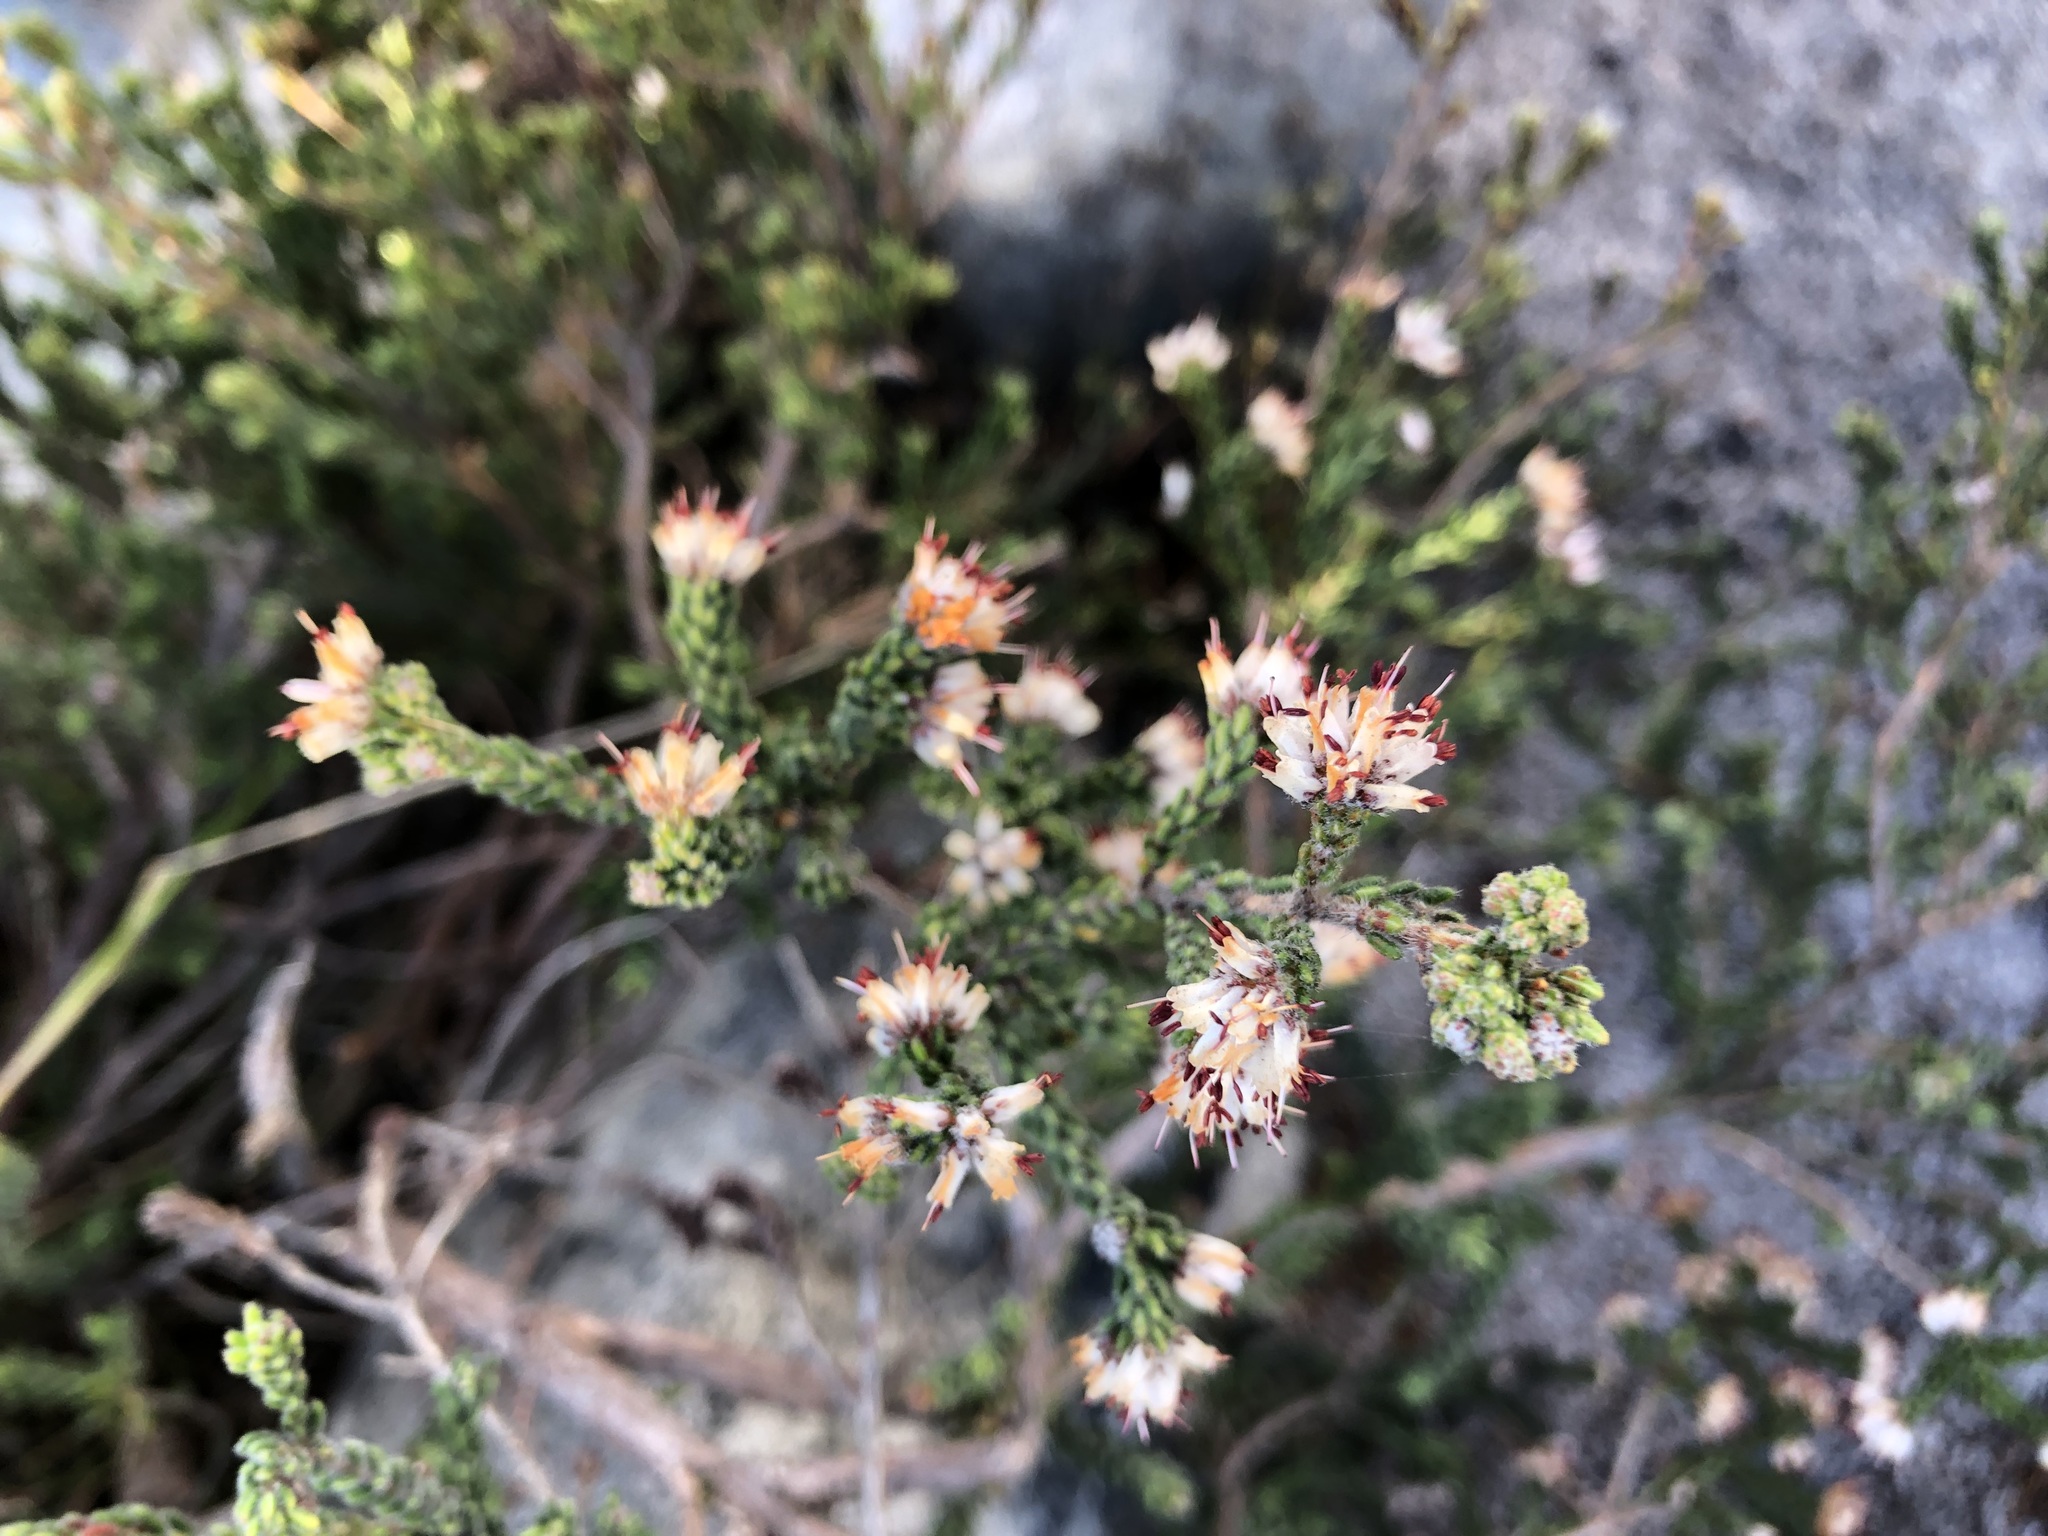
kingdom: Plantae
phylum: Tracheophyta
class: Magnoliopsida
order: Ericales
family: Ericaceae
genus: Erica
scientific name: Erica labialis
